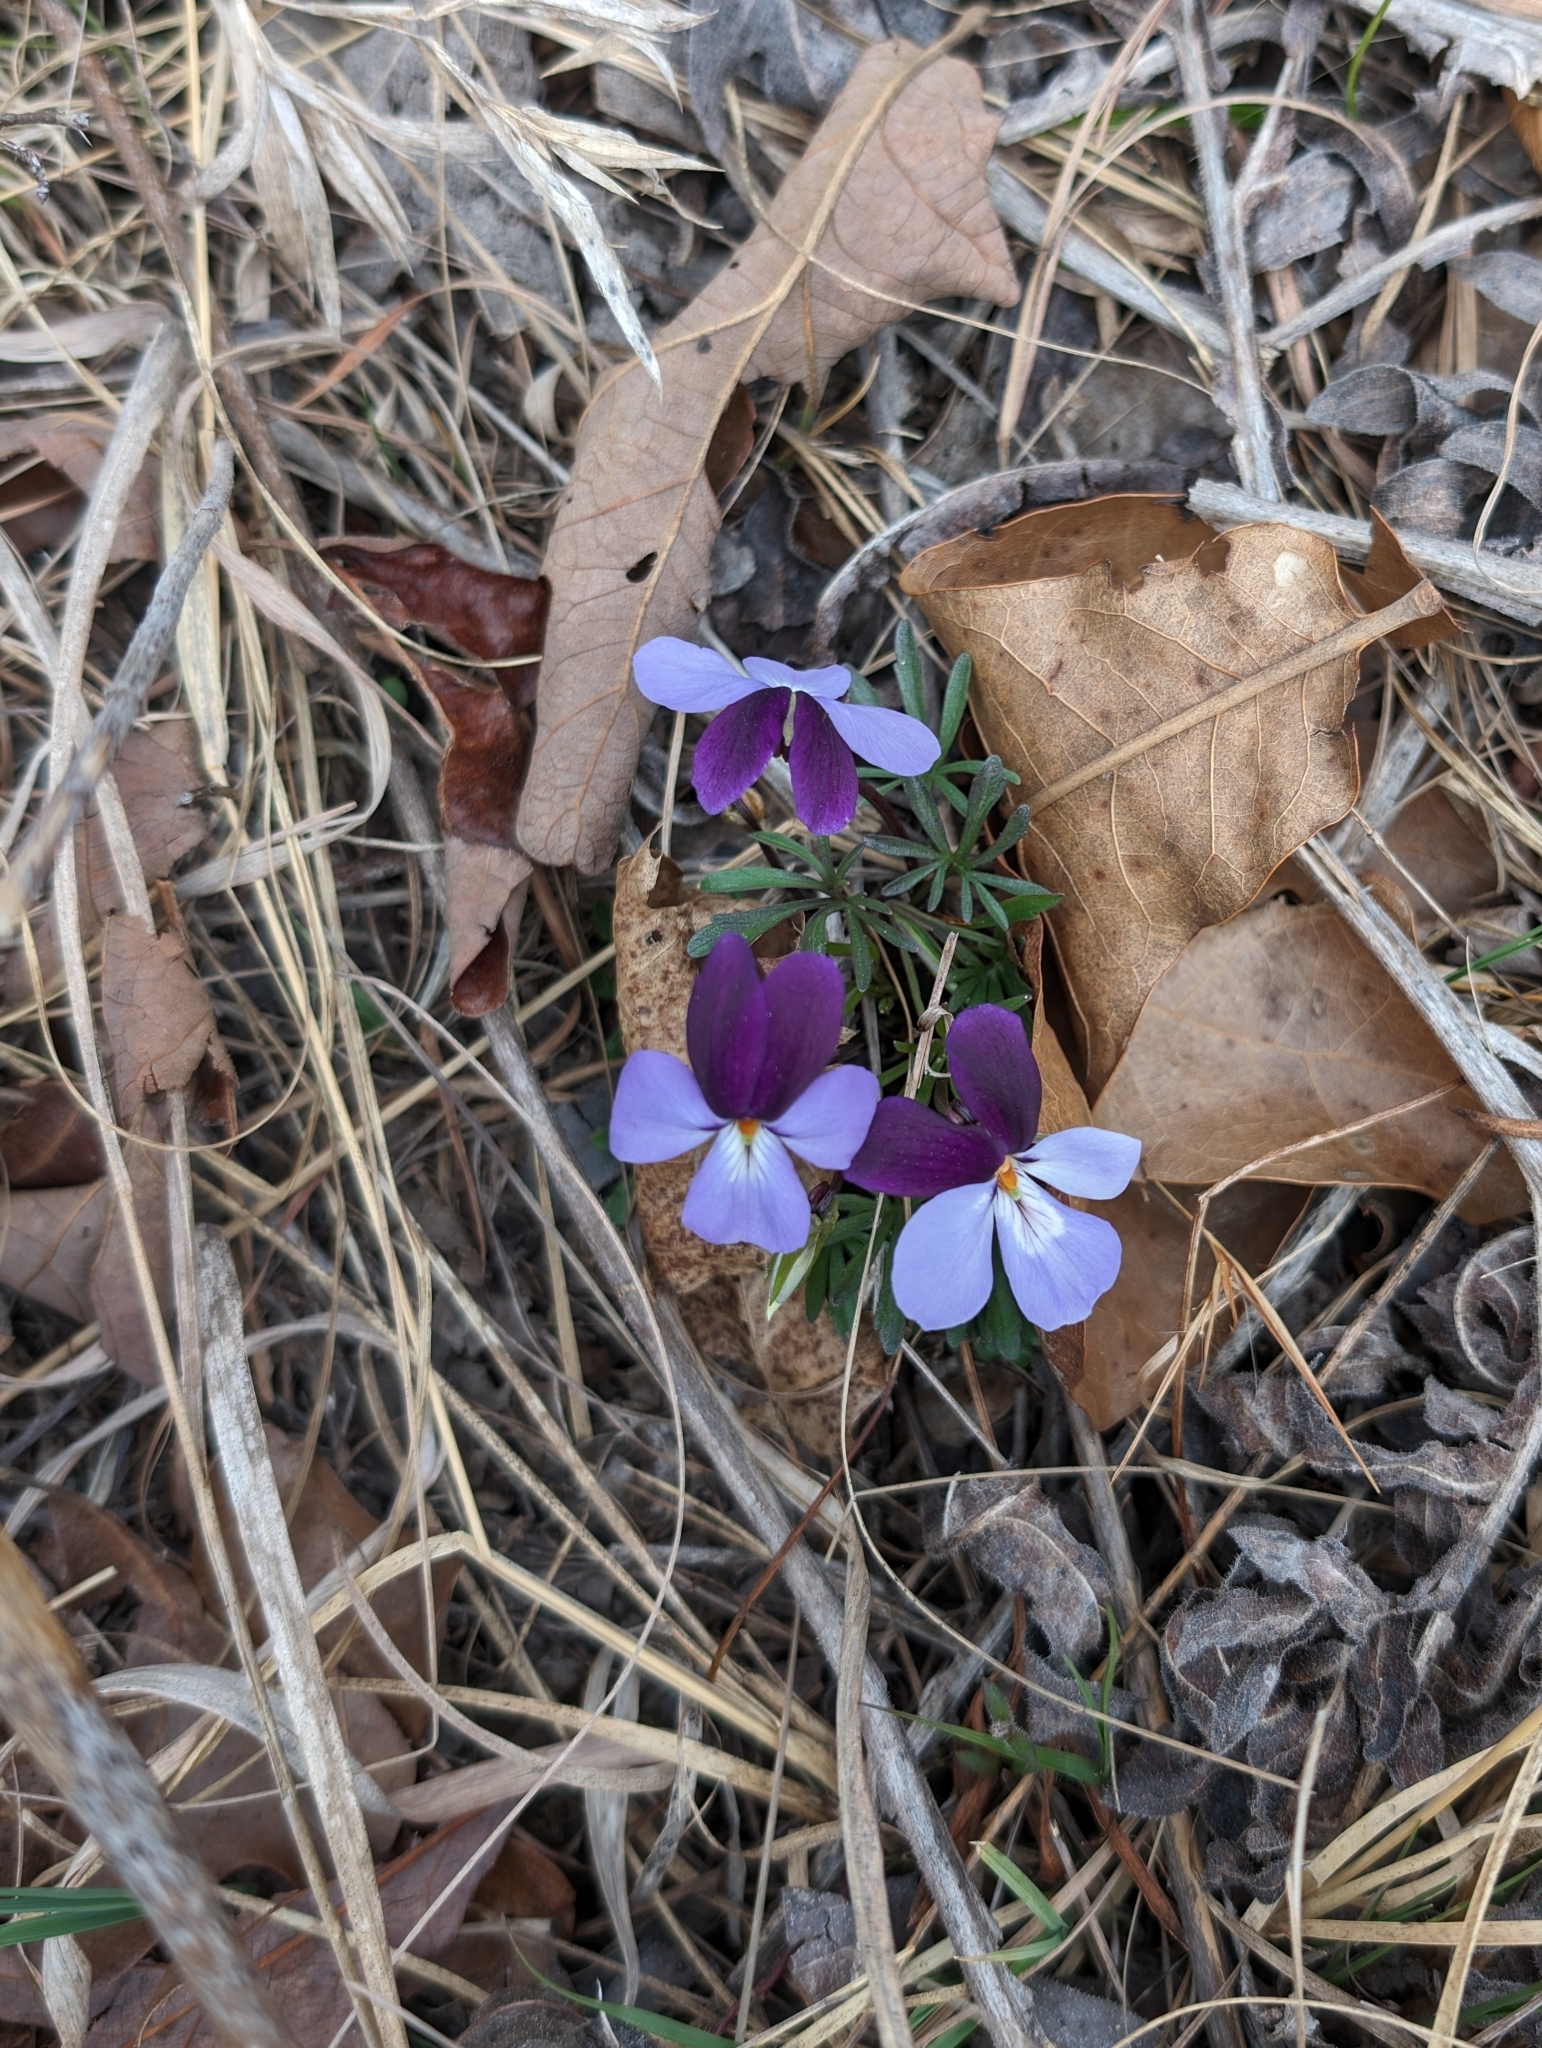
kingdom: Plantae
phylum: Tracheophyta
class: Magnoliopsida
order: Malpighiales
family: Violaceae
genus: Viola
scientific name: Viola pedata
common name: Pansy violet
